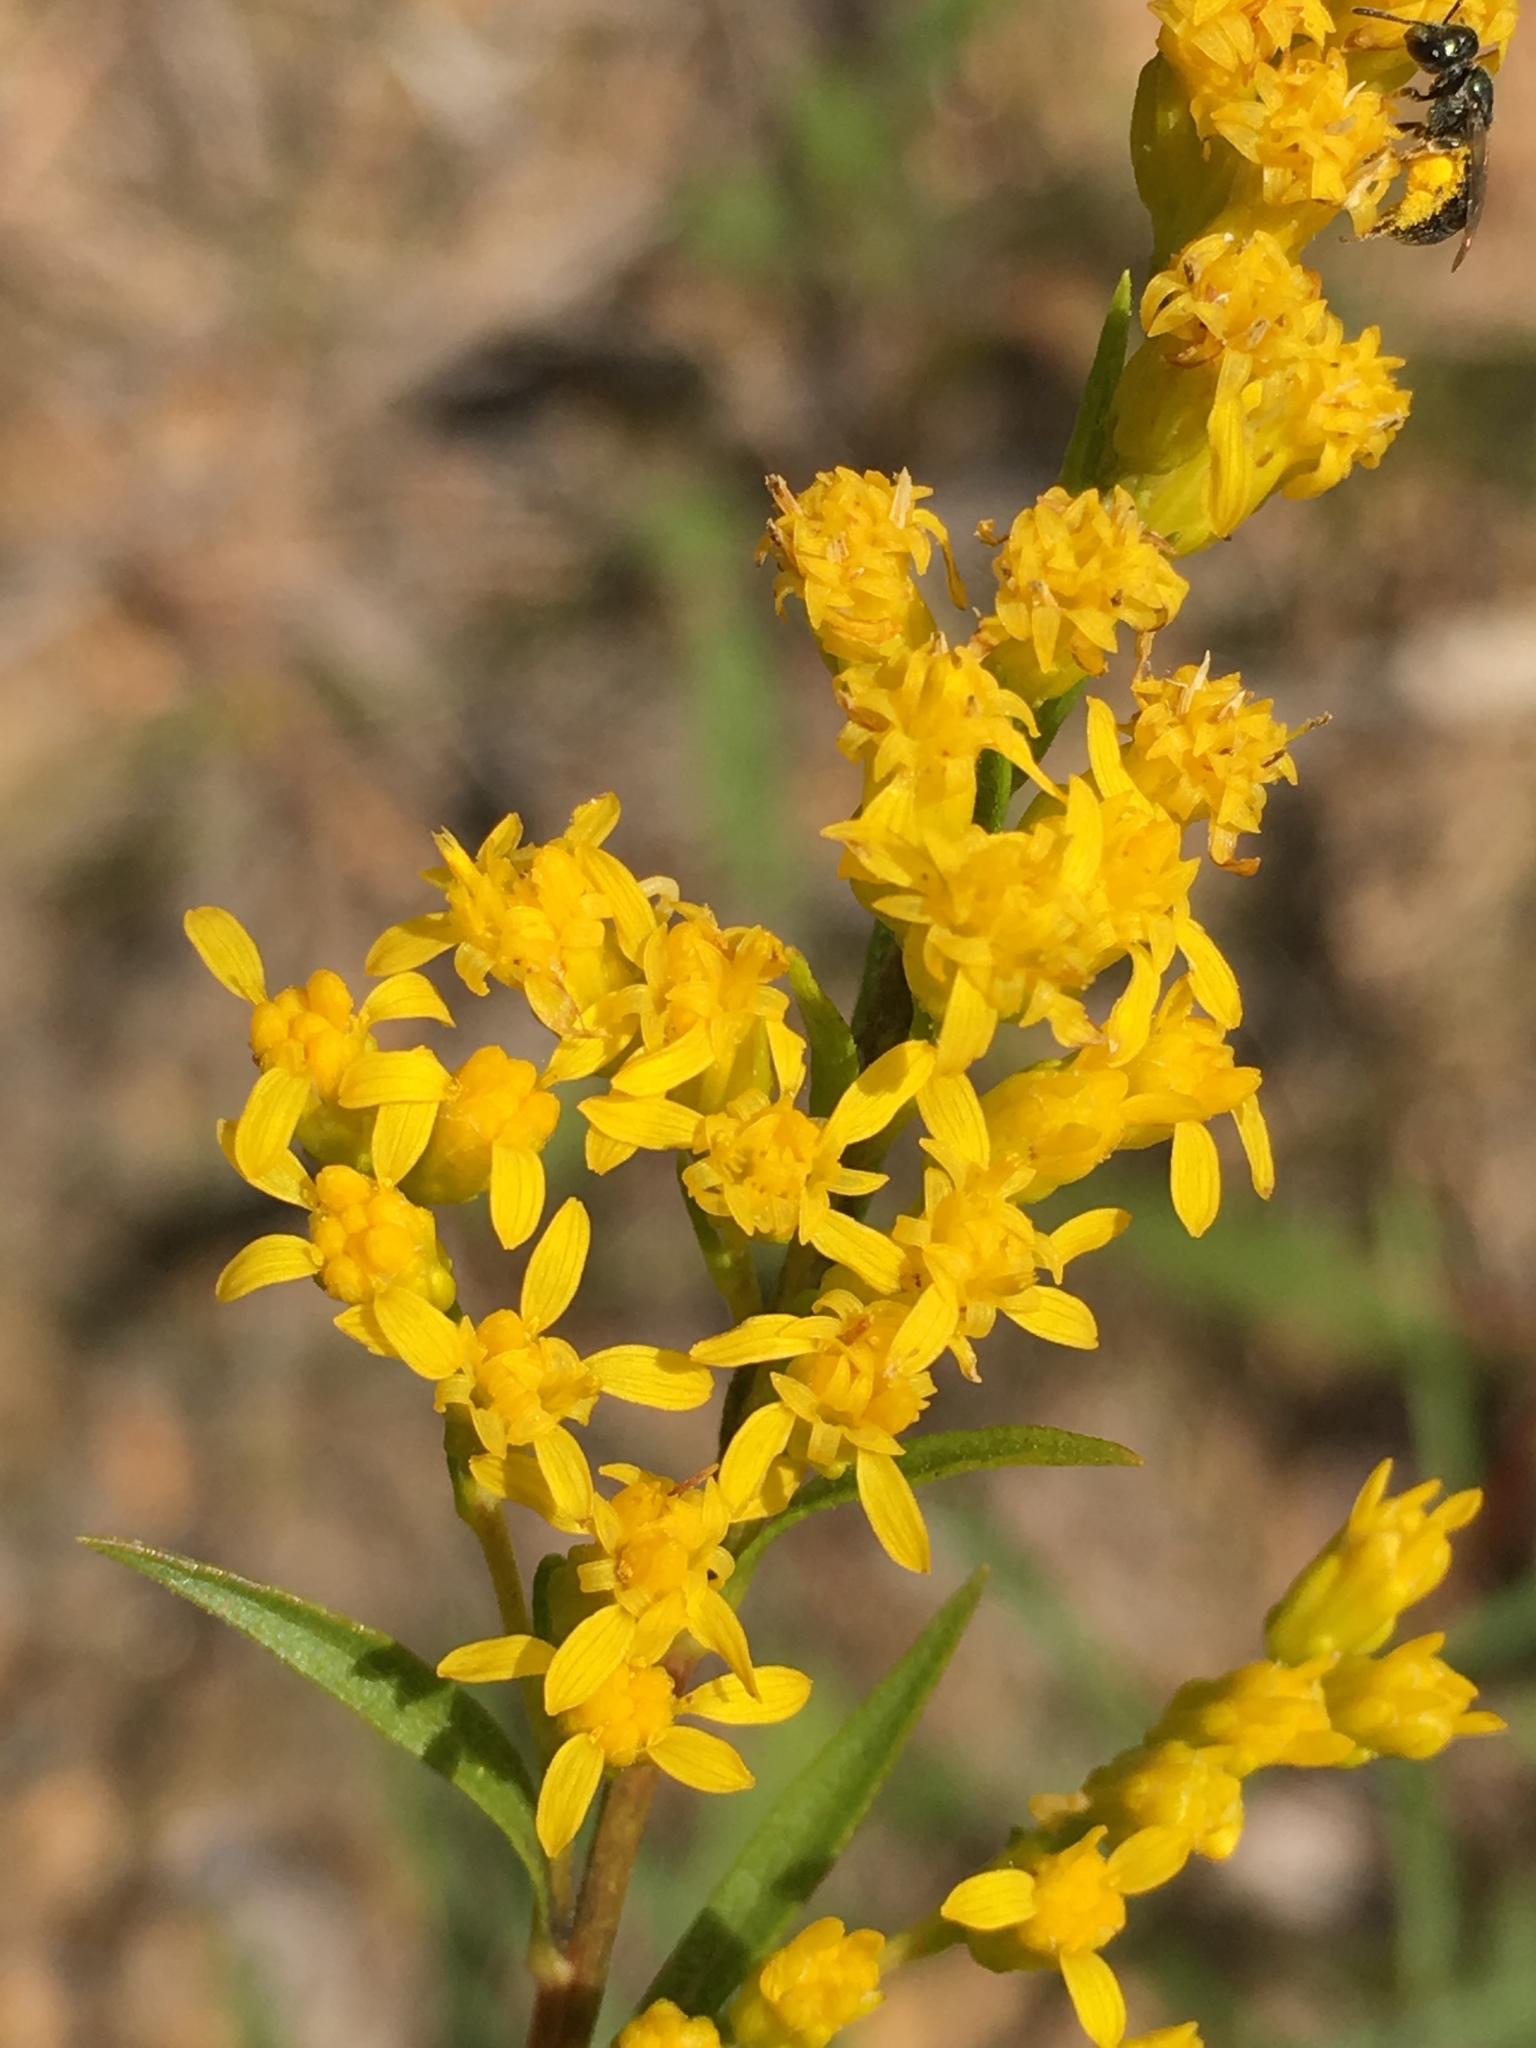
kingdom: Plantae
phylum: Tracheophyta
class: Magnoliopsida
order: Asterales
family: Asteraceae
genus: Solidago
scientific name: Solidago pinetorum
